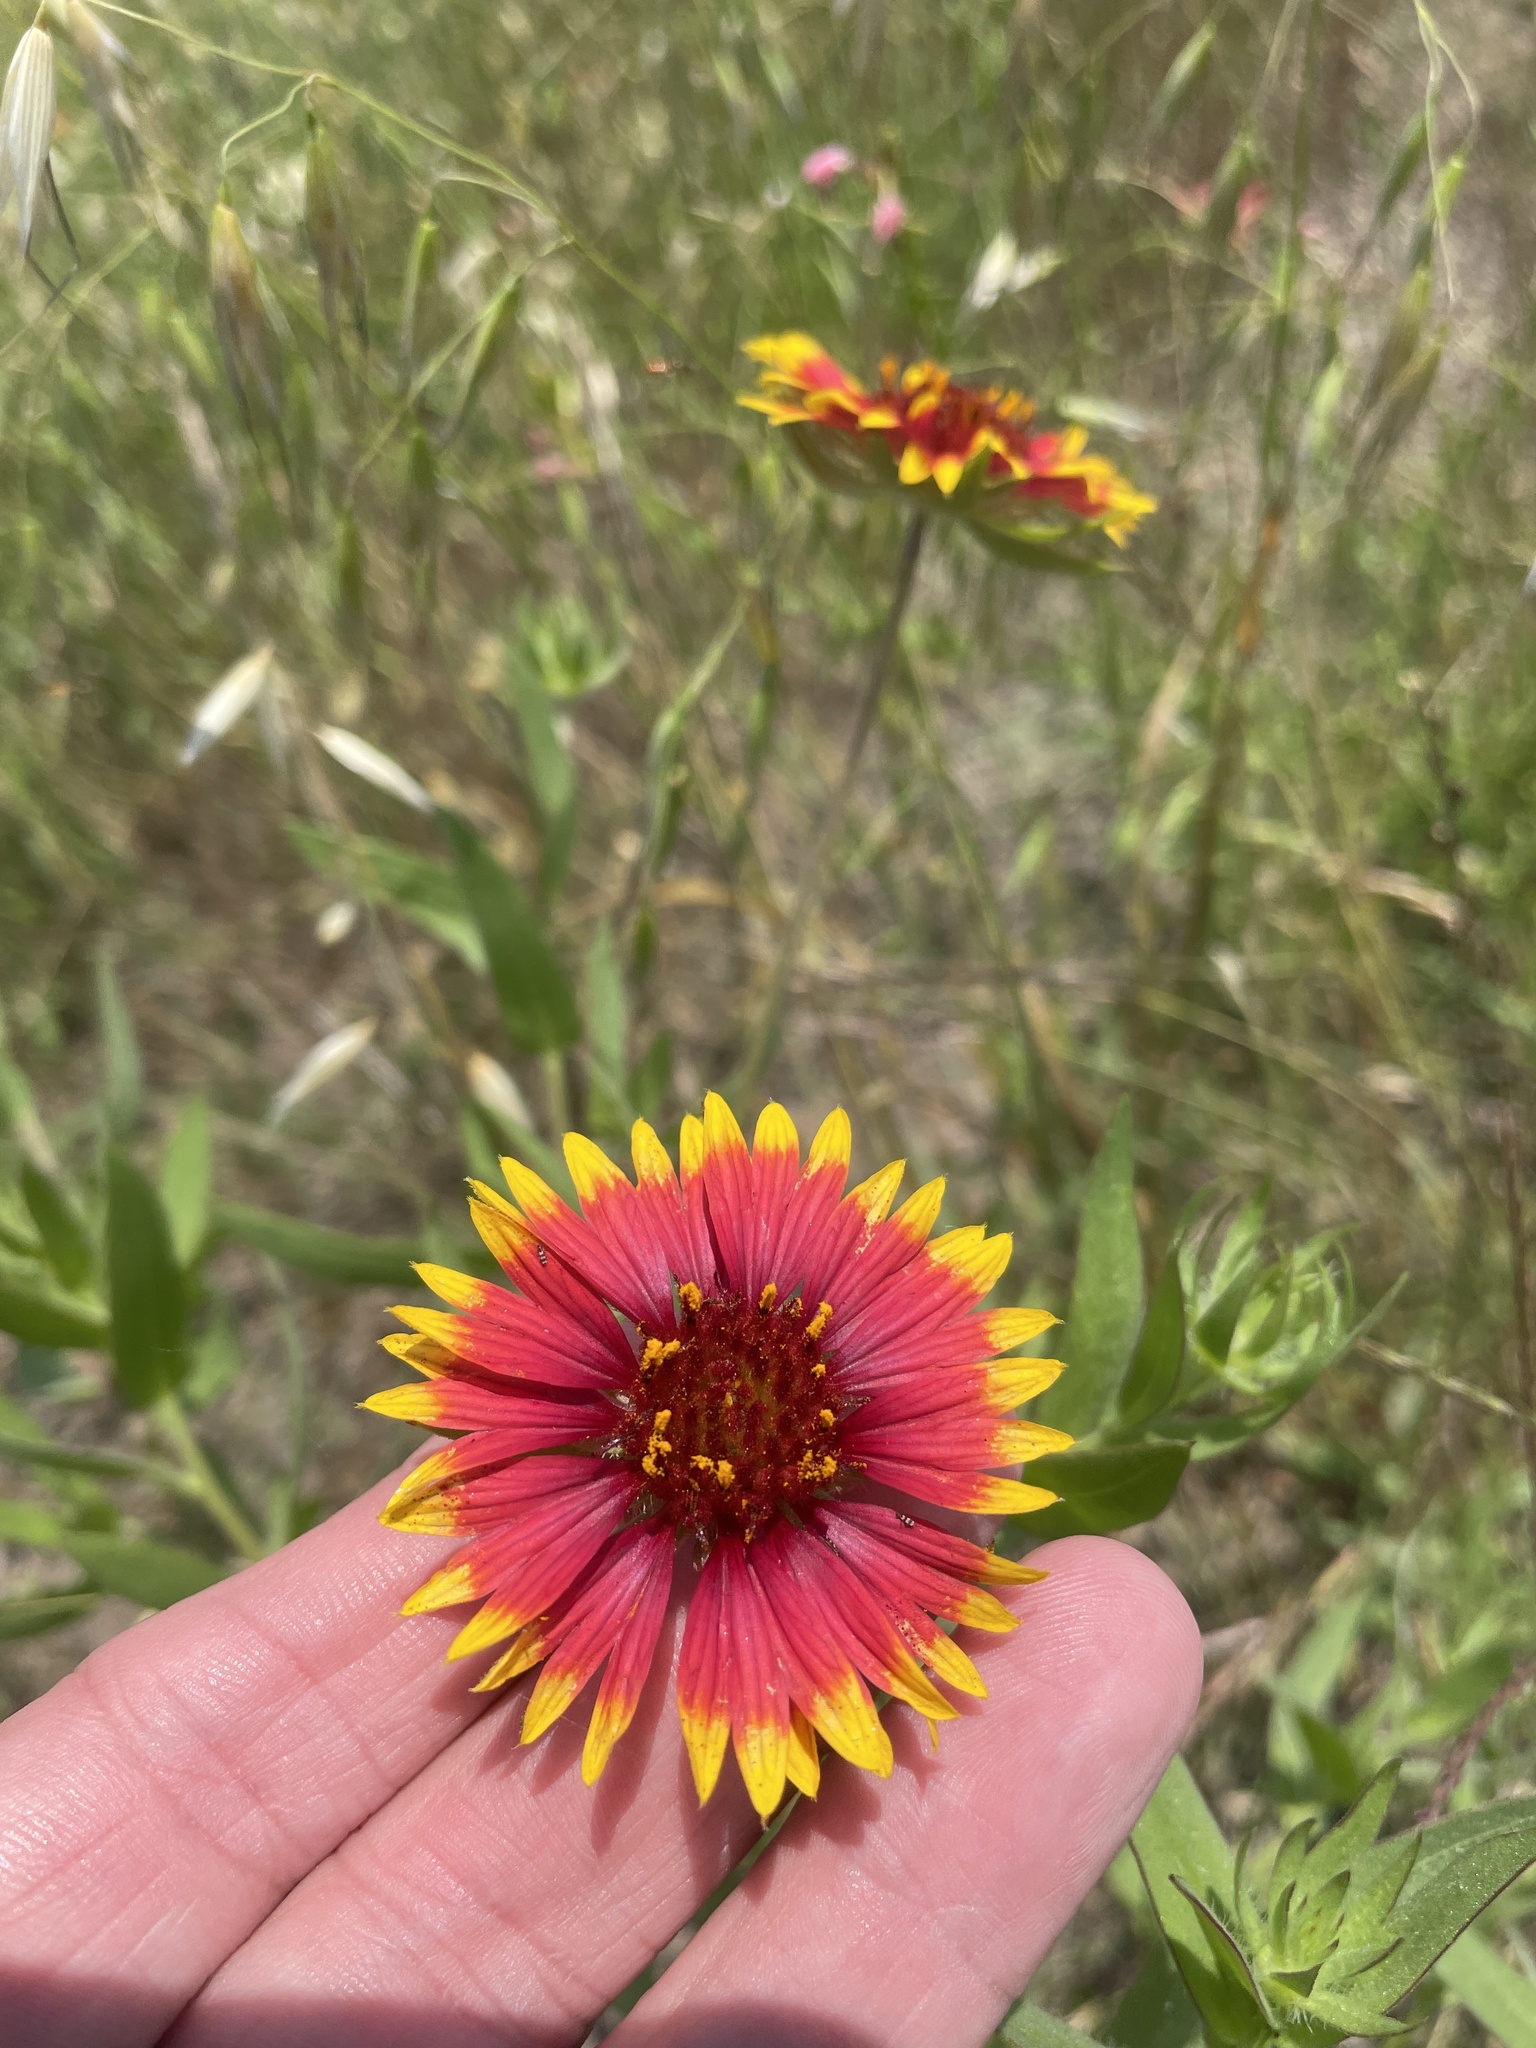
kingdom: Plantae
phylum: Tracheophyta
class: Magnoliopsida
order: Asterales
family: Asteraceae
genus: Gaillardia
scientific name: Gaillardia pulchella
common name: Firewheel
